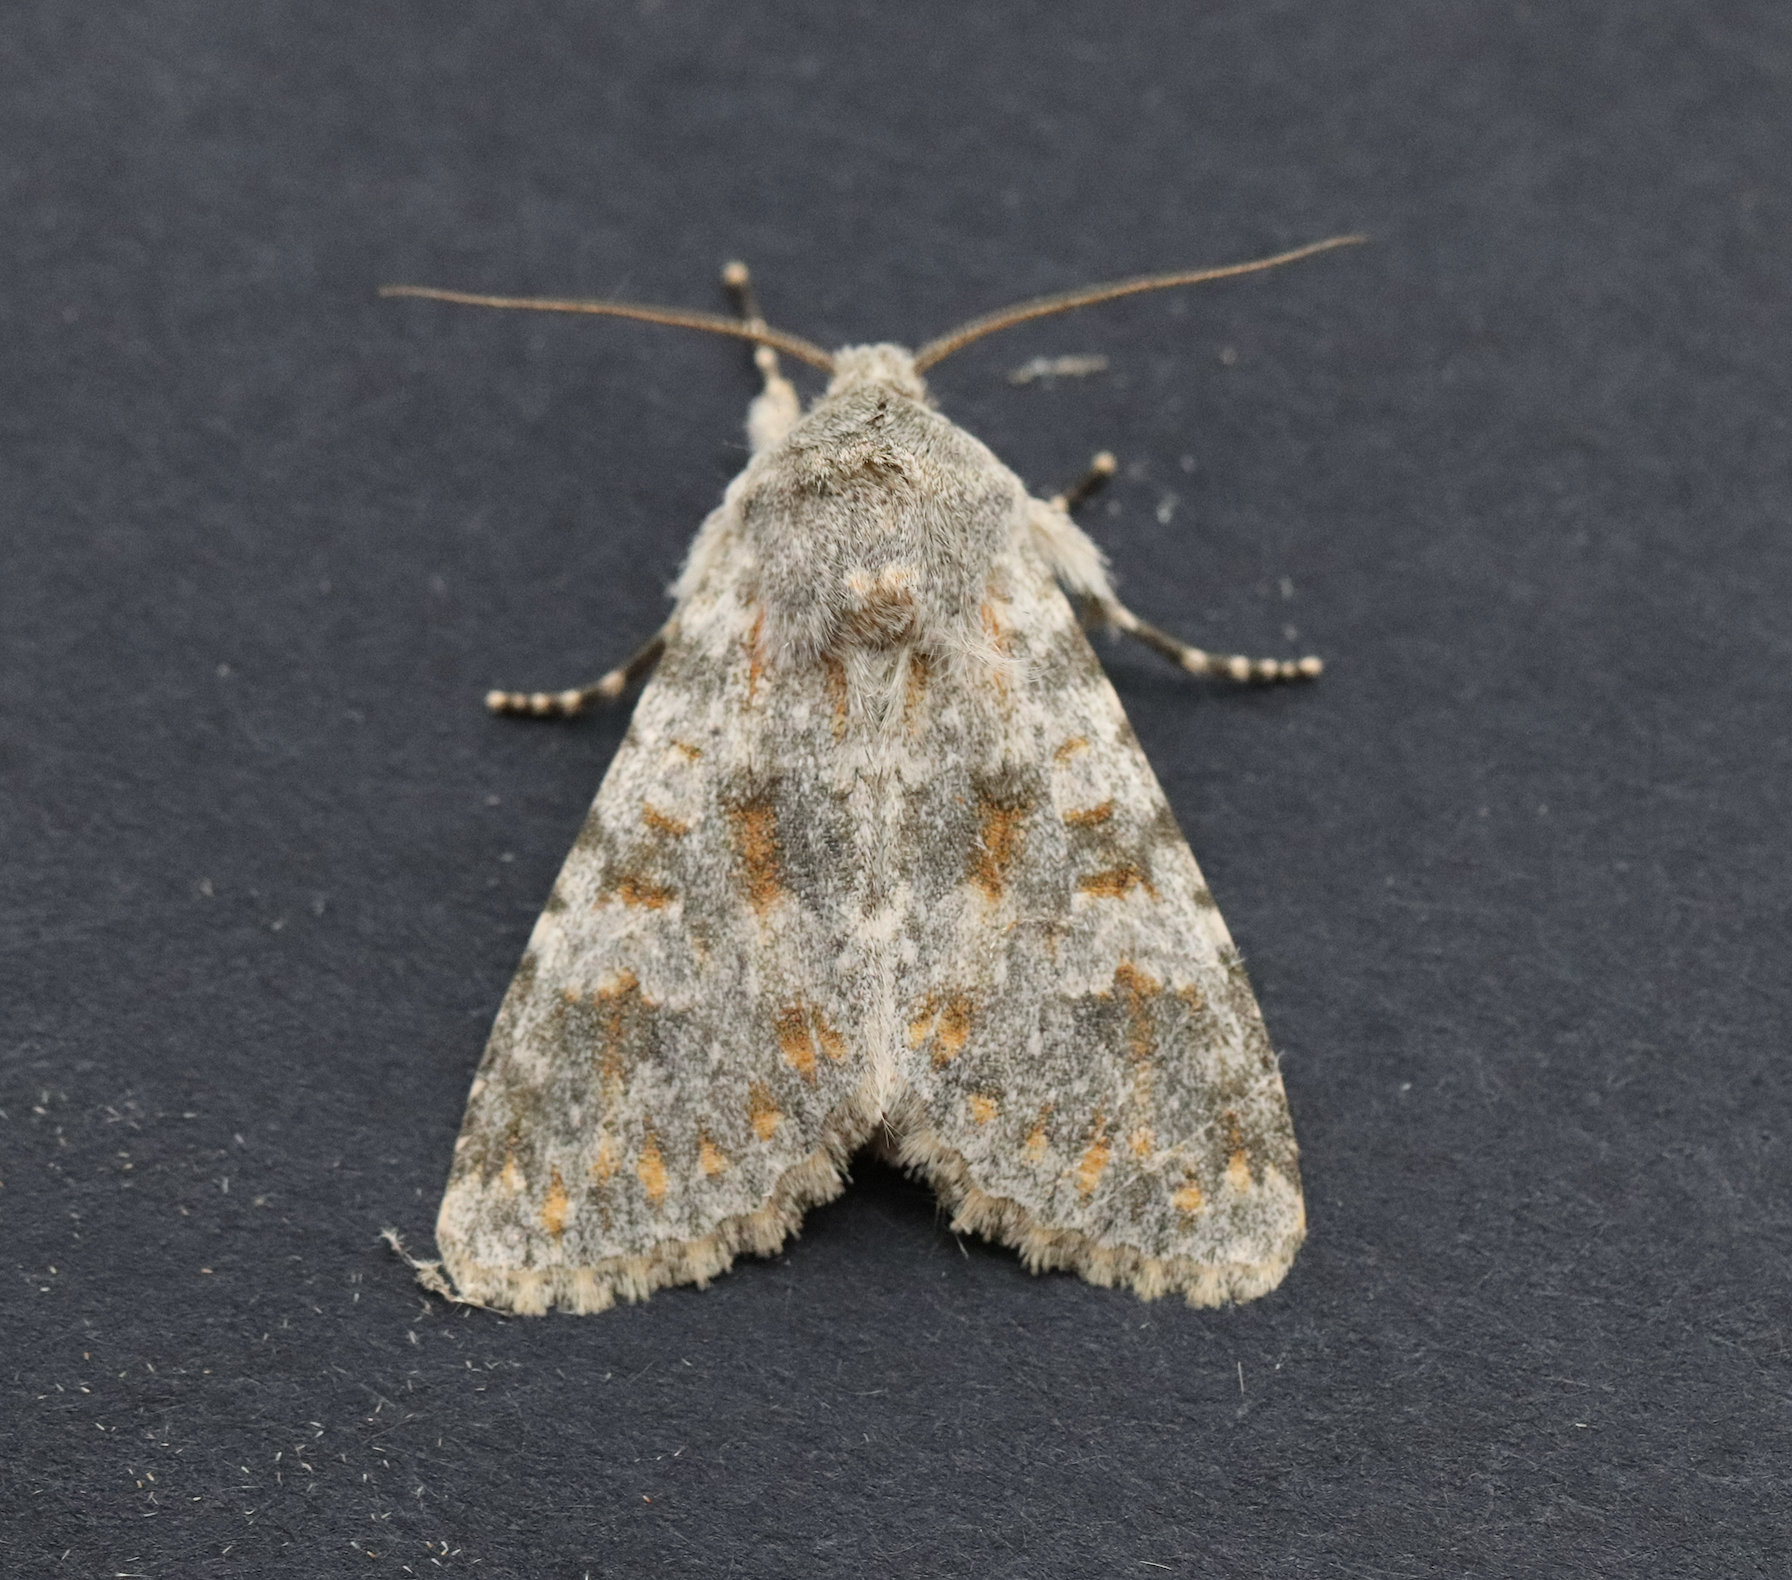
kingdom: Animalia
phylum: Arthropoda
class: Insecta
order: Lepidoptera
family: Noctuidae
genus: Polymixis
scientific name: Polymixis rufocincta
